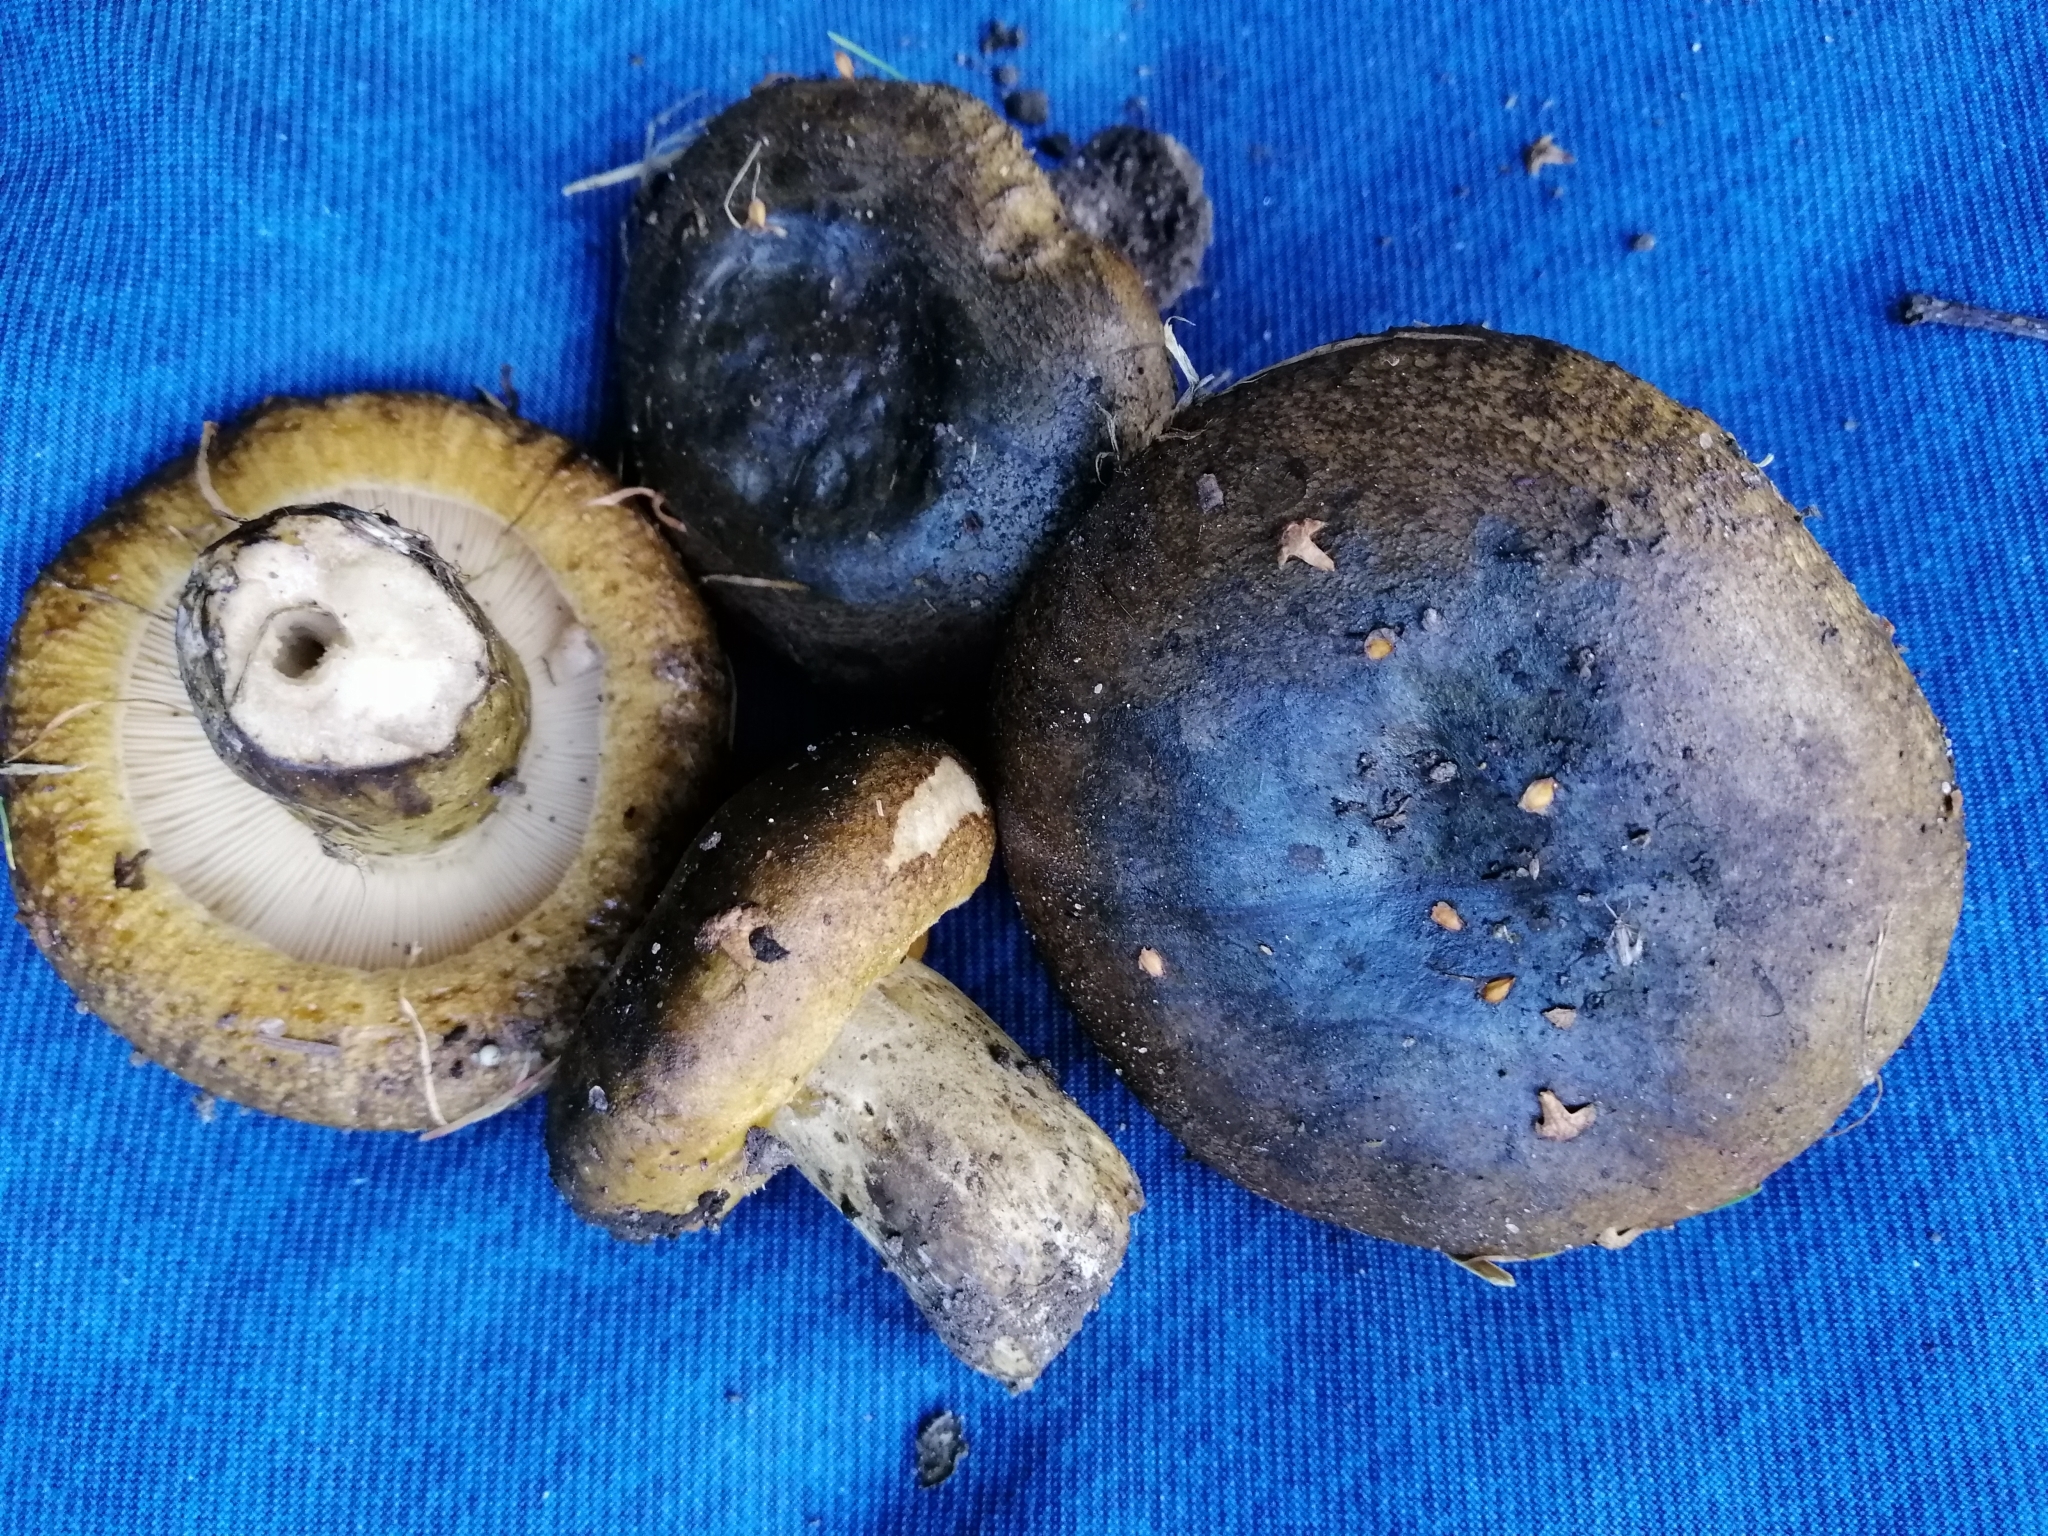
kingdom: Fungi
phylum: Basidiomycota
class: Agaricomycetes
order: Russulales
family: Russulaceae
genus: Lactarius
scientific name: Lactarius turpis
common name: Ugly milk-cap
